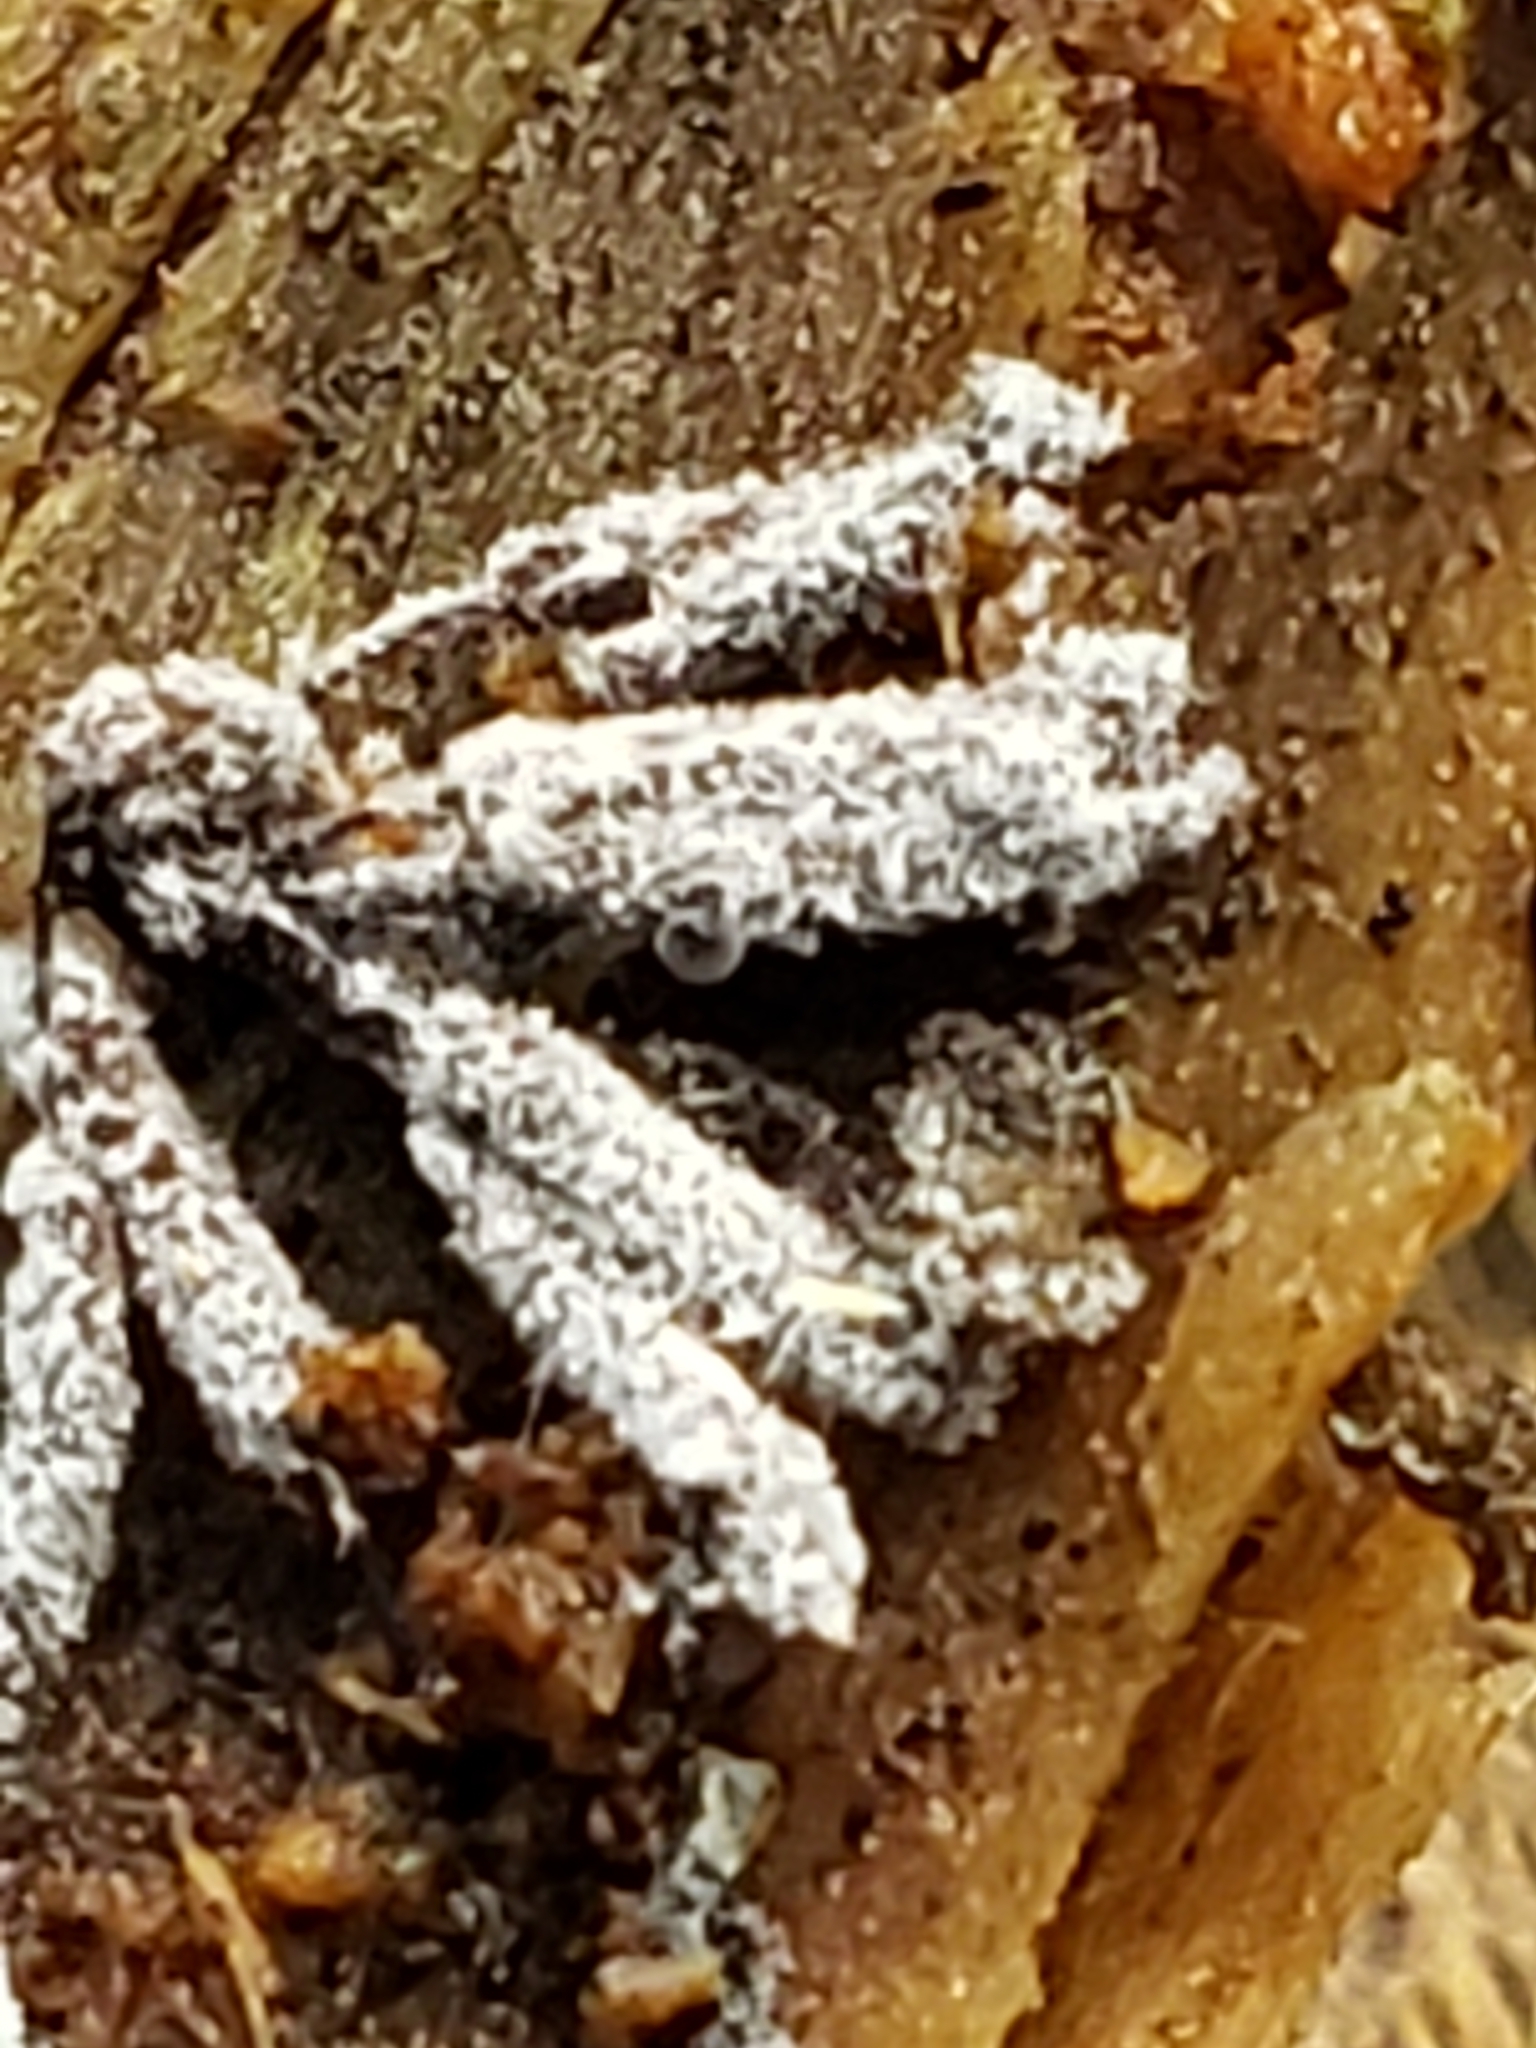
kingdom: Protozoa
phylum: Mycetozoa
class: Protosteliomycetes
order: Ceratiomyxales
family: Ceratiomyxaceae
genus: Ceratiomyxa
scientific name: Ceratiomyxa fruticulosa
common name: Honeycomb coral slime mold
